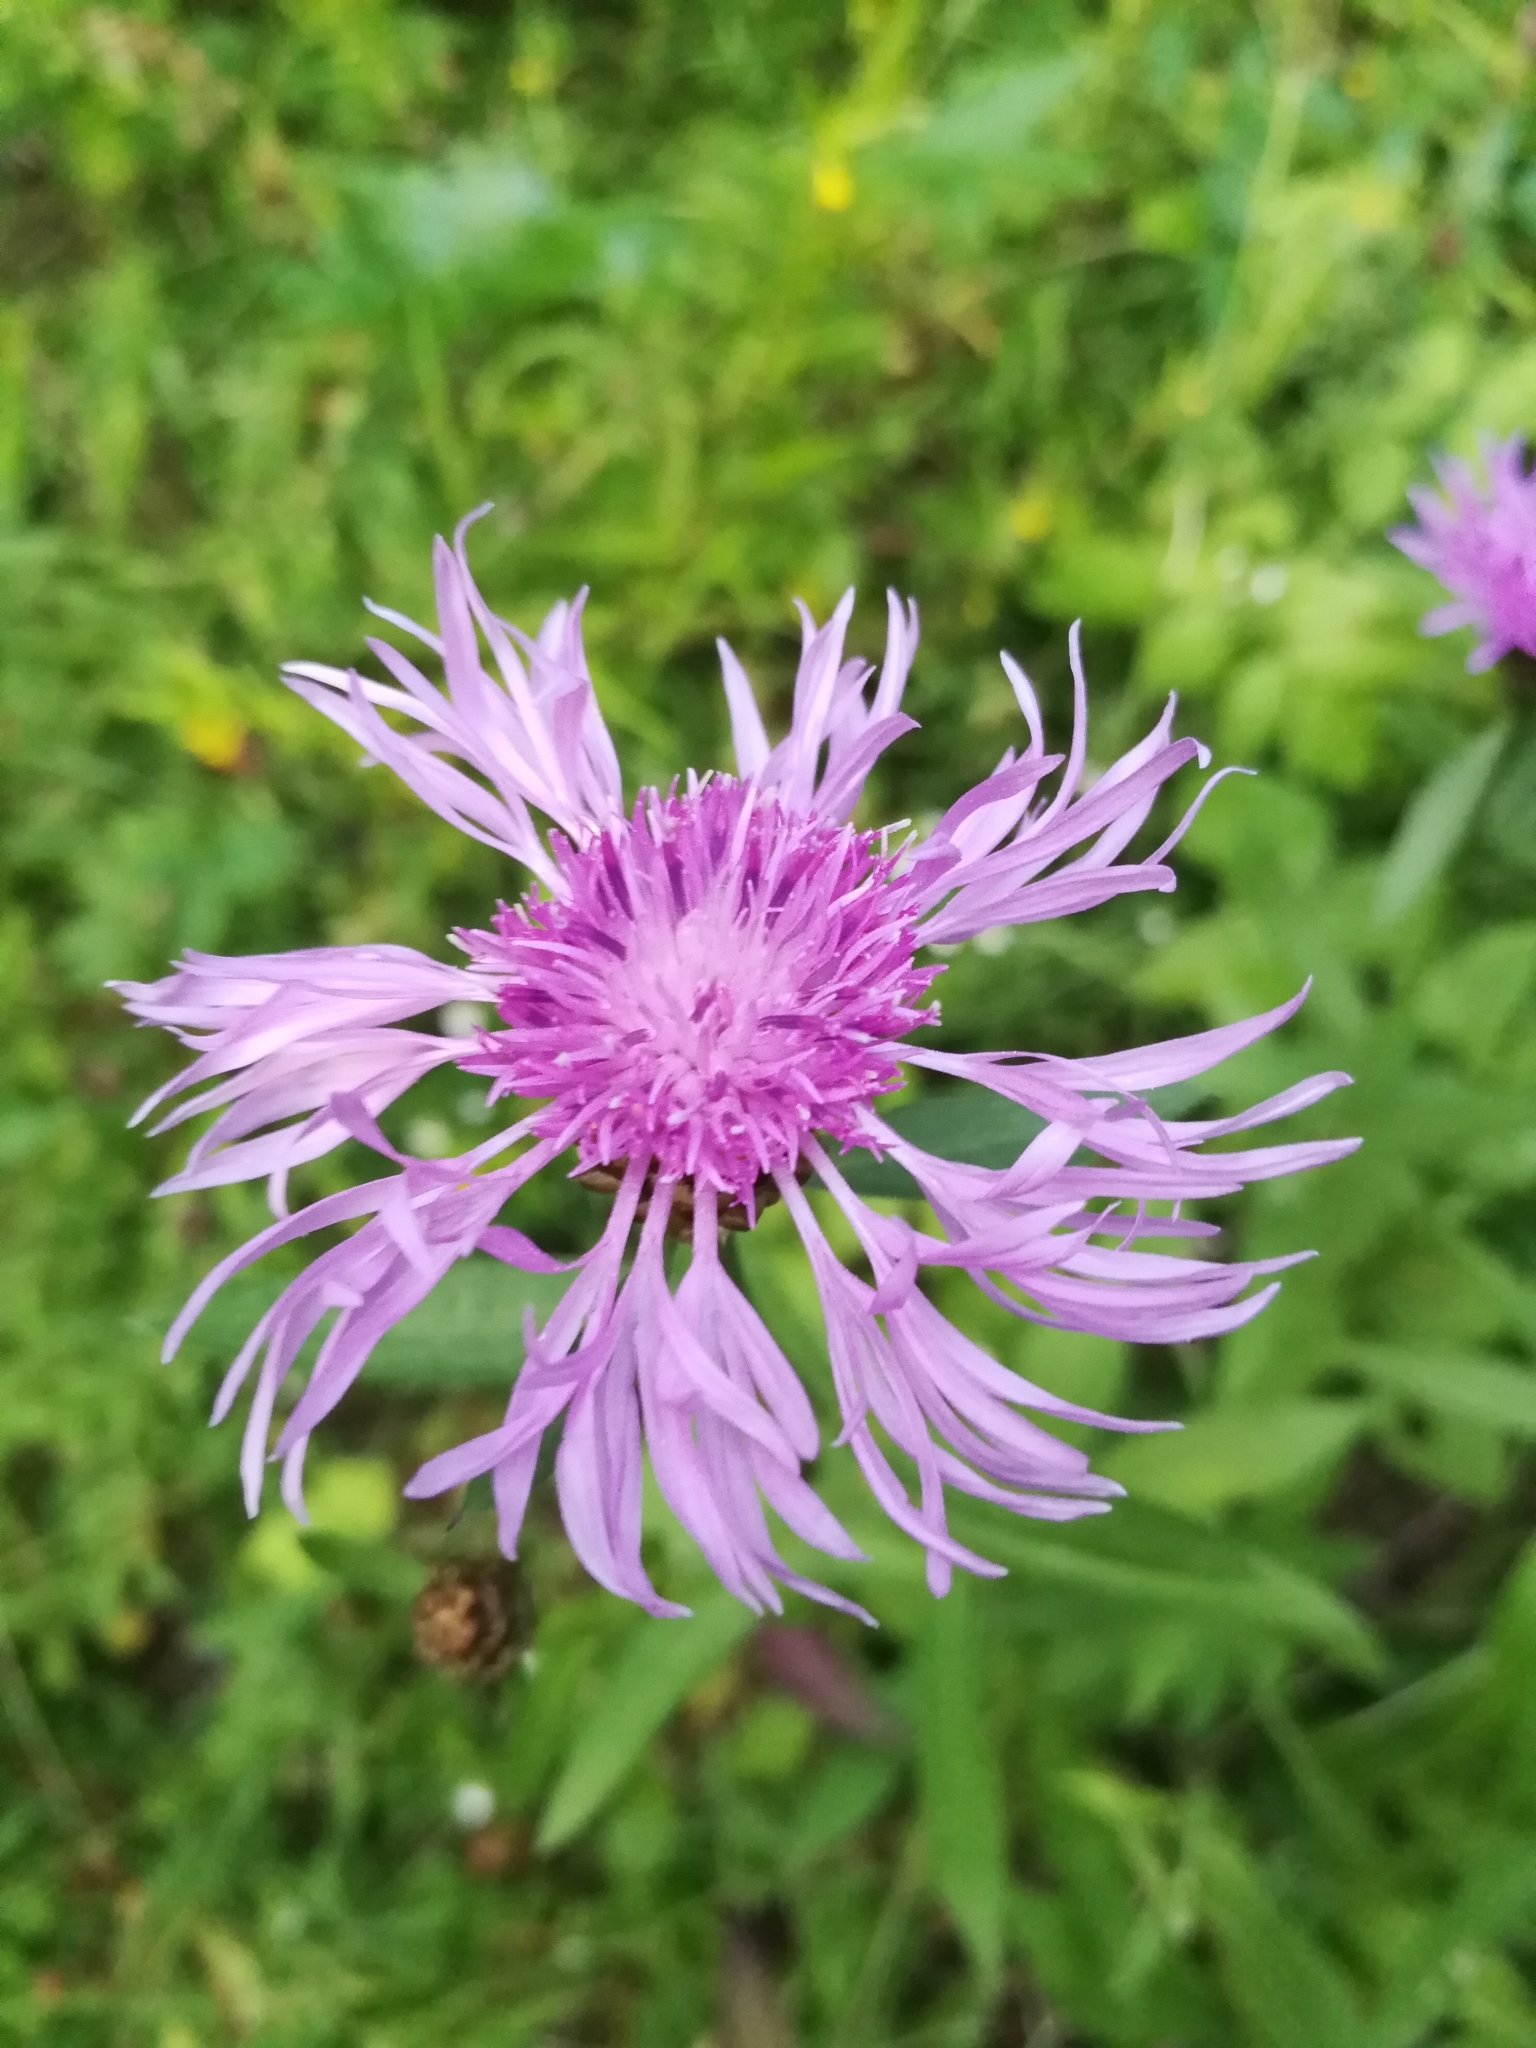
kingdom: Plantae
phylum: Tracheophyta
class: Magnoliopsida
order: Asterales
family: Asteraceae
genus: Centaurea
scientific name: Centaurea jacea
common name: Brown knapweed
